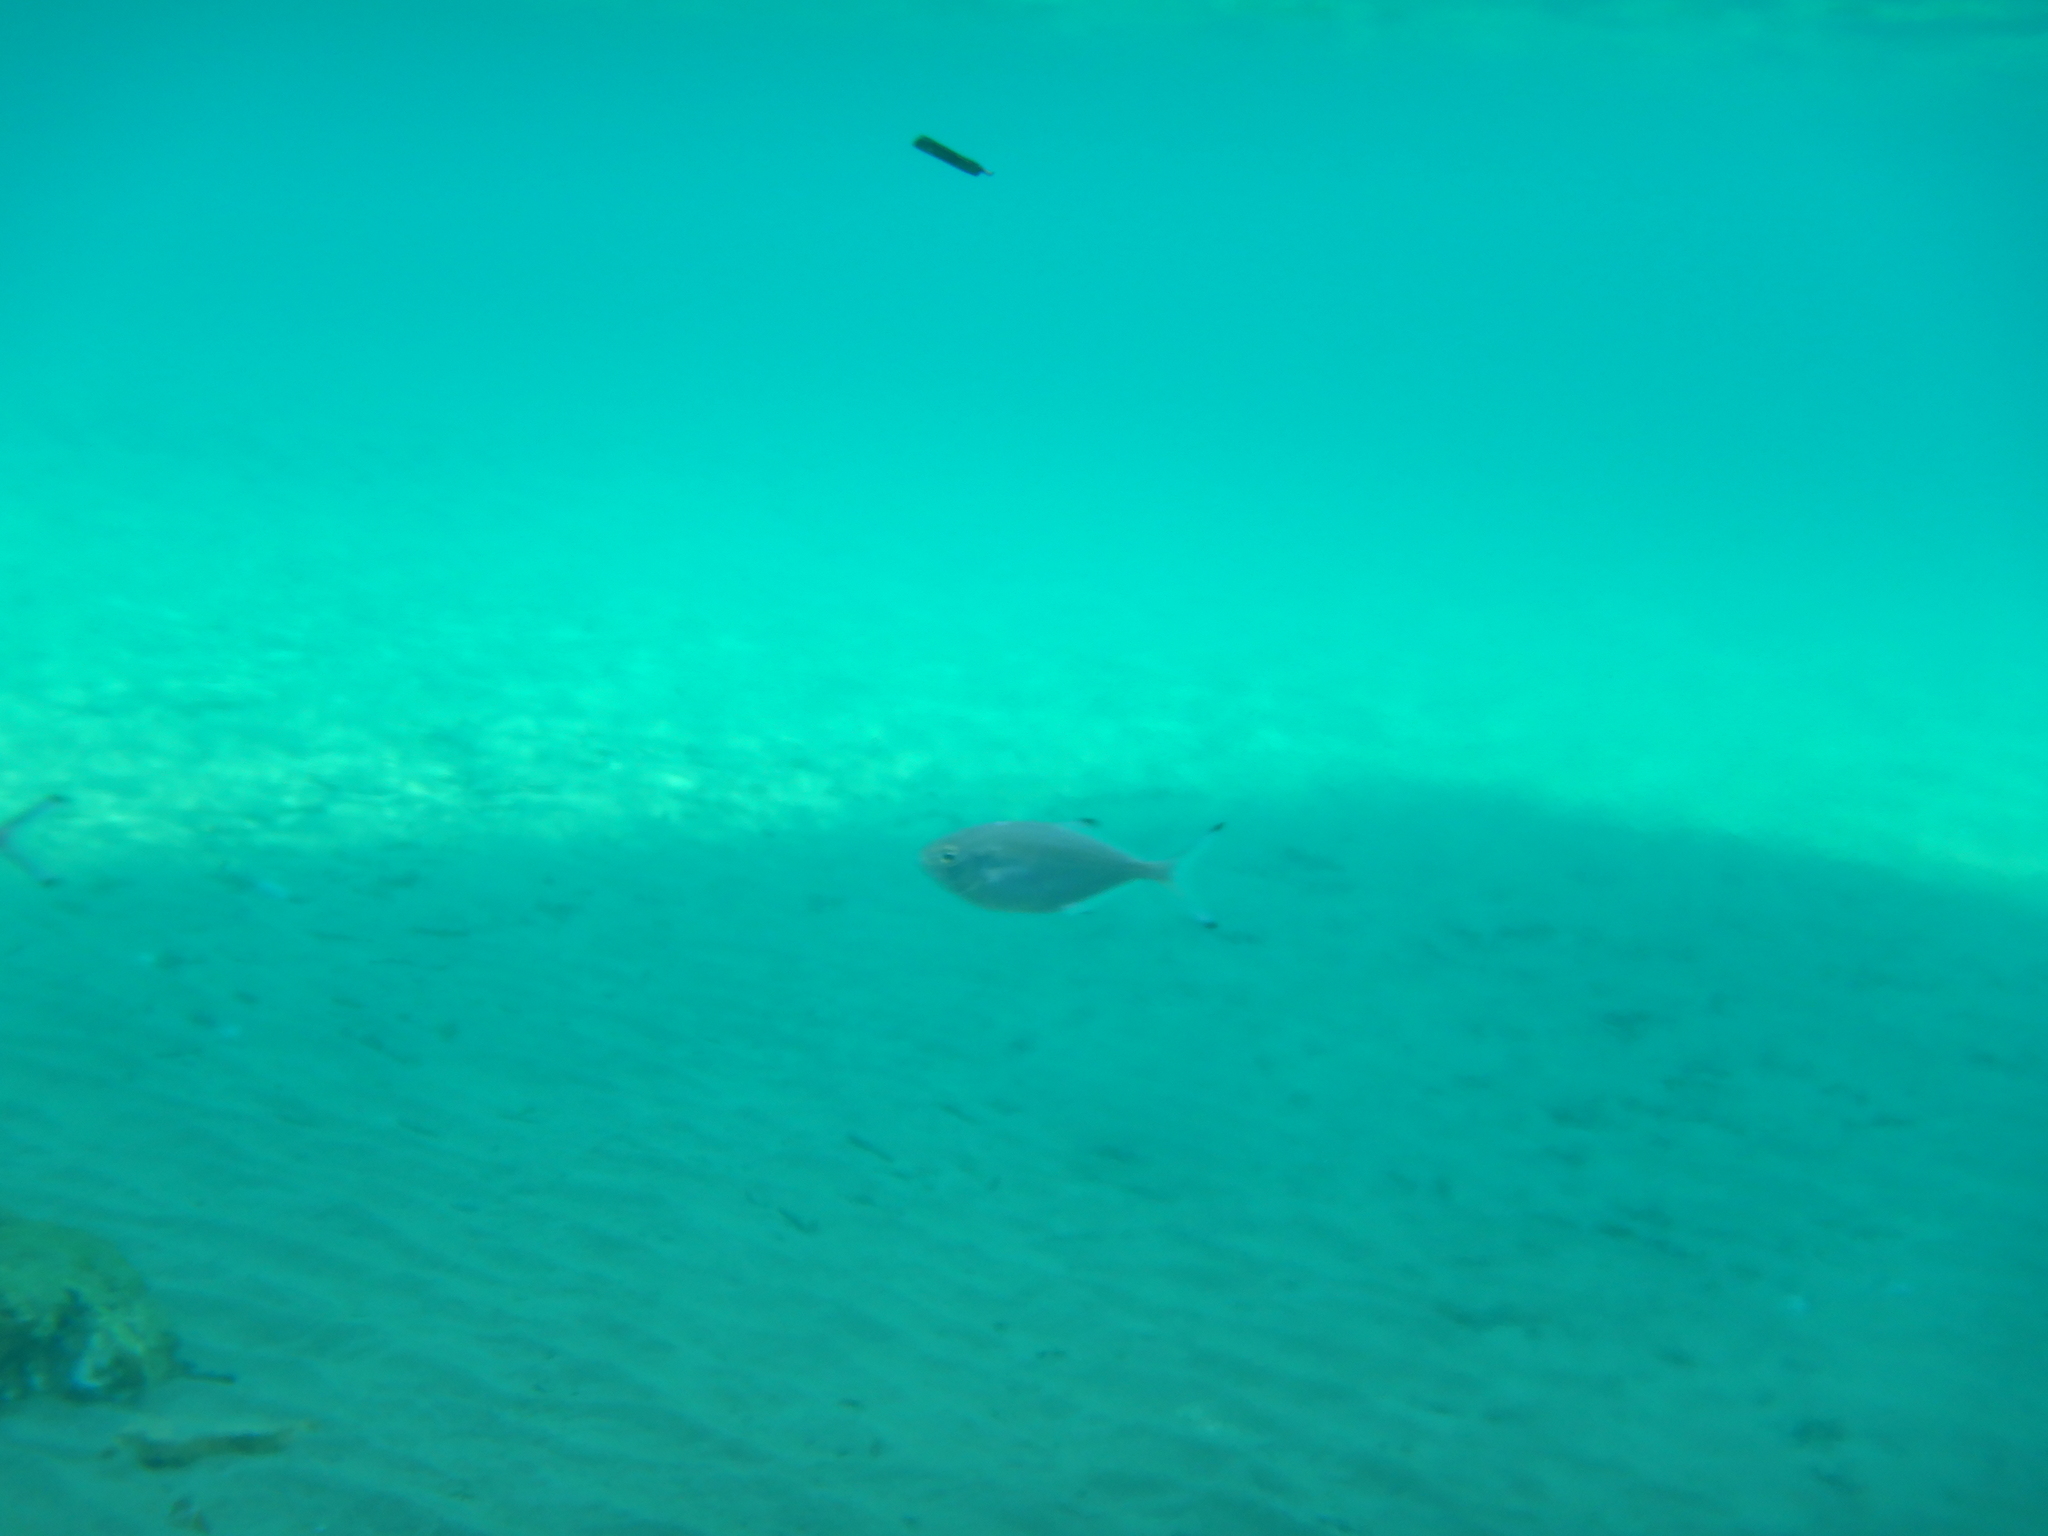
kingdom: Animalia
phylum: Chordata
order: Perciformes
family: Carangidae
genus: Trachinotus
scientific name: Trachinotus ovatus
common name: Pompano
